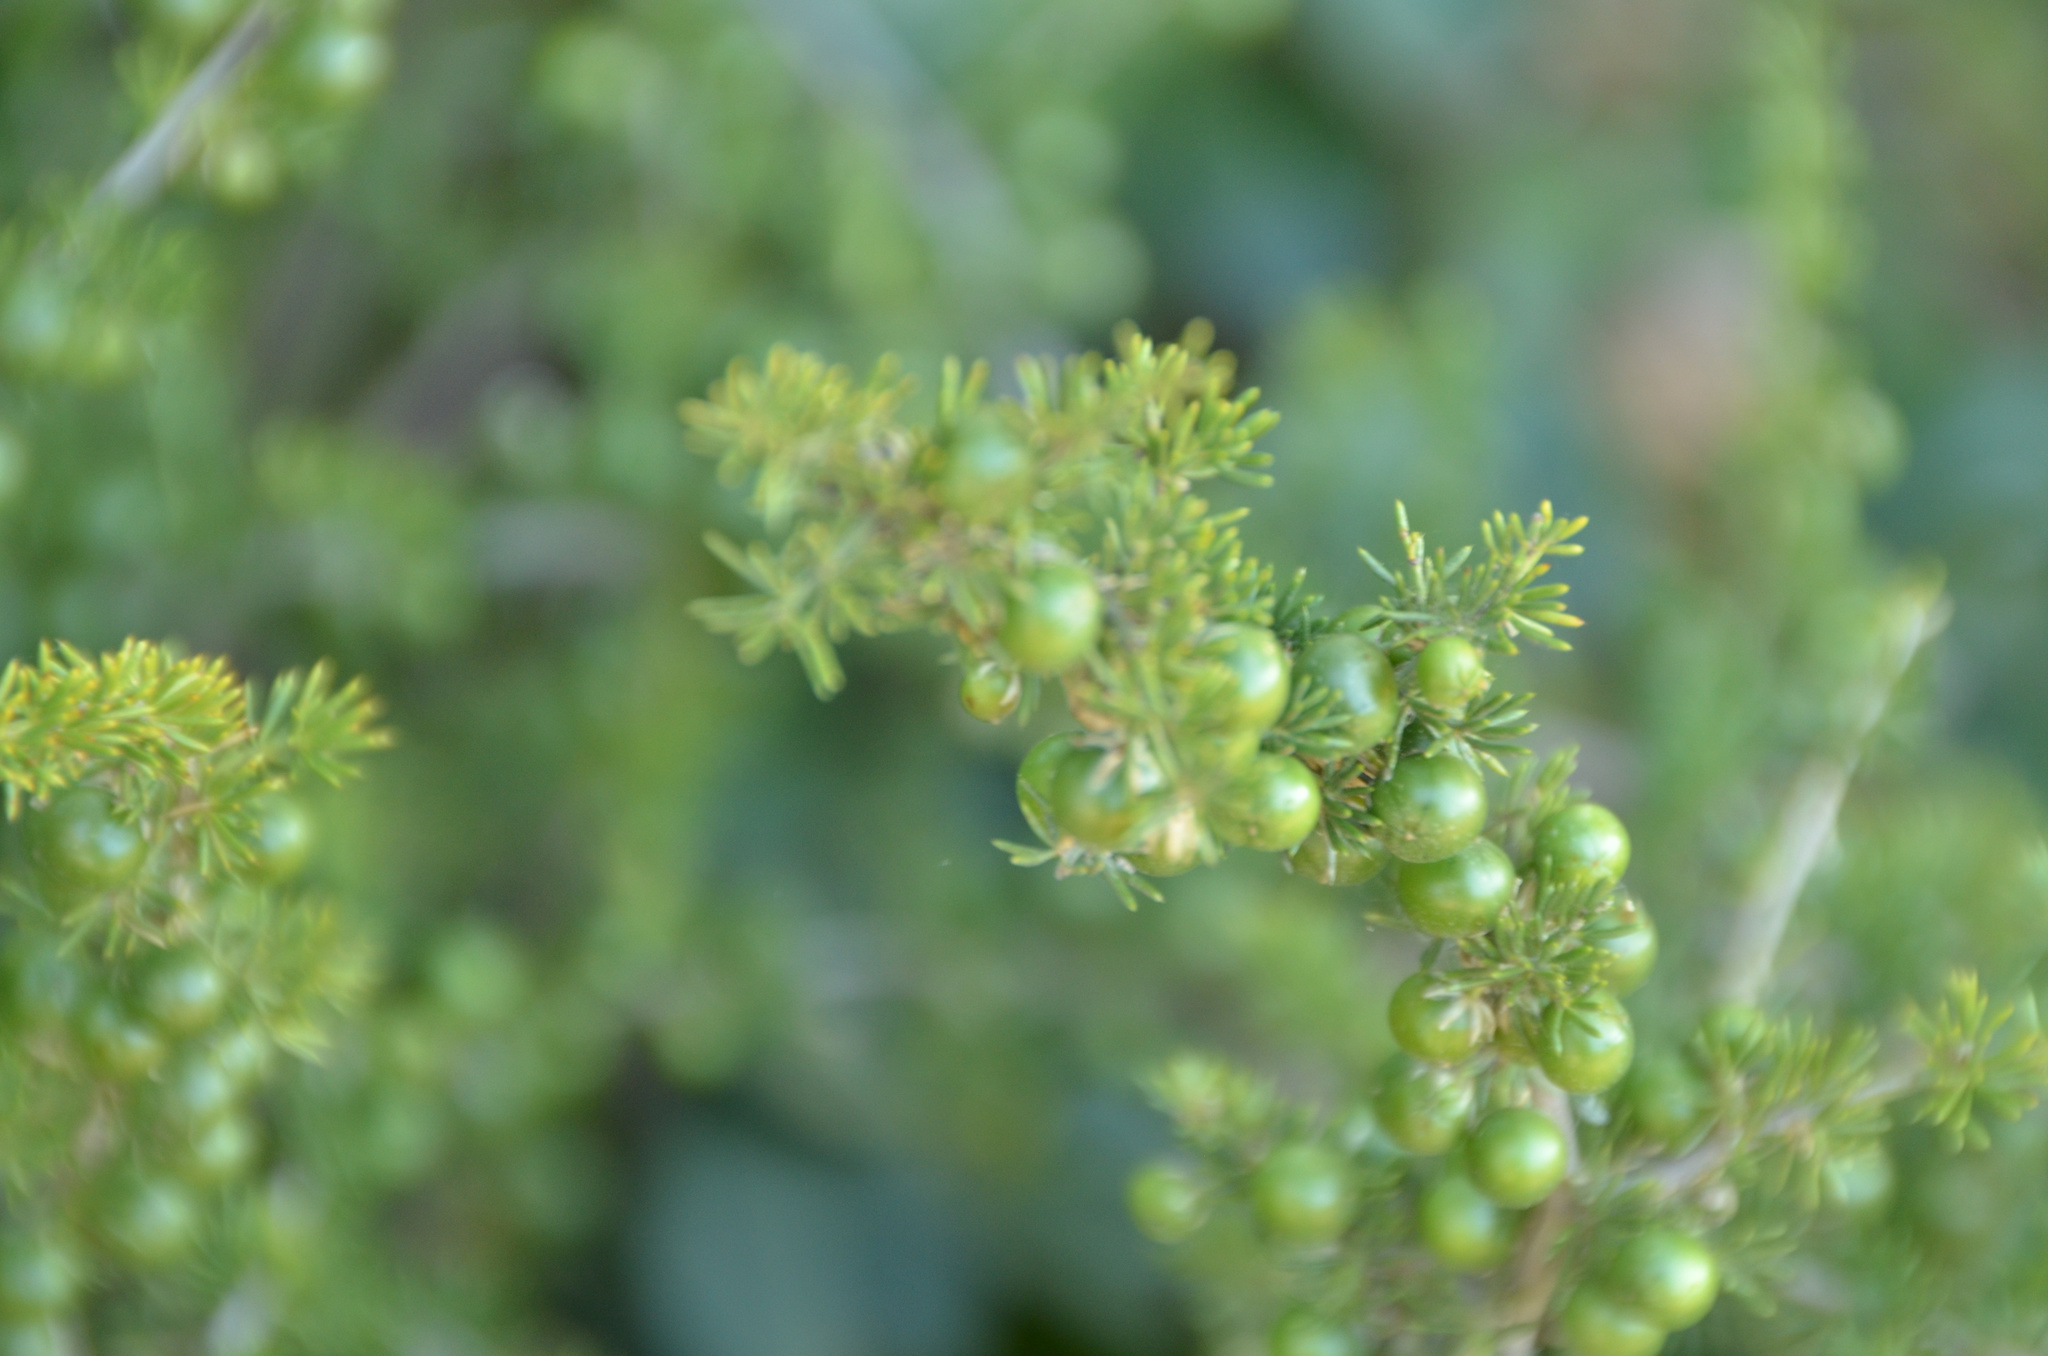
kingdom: Plantae
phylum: Tracheophyta
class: Liliopsida
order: Asparagales
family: Asparagaceae
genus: Asparagus
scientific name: Asparagus acutifolius
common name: Wild asparagus
